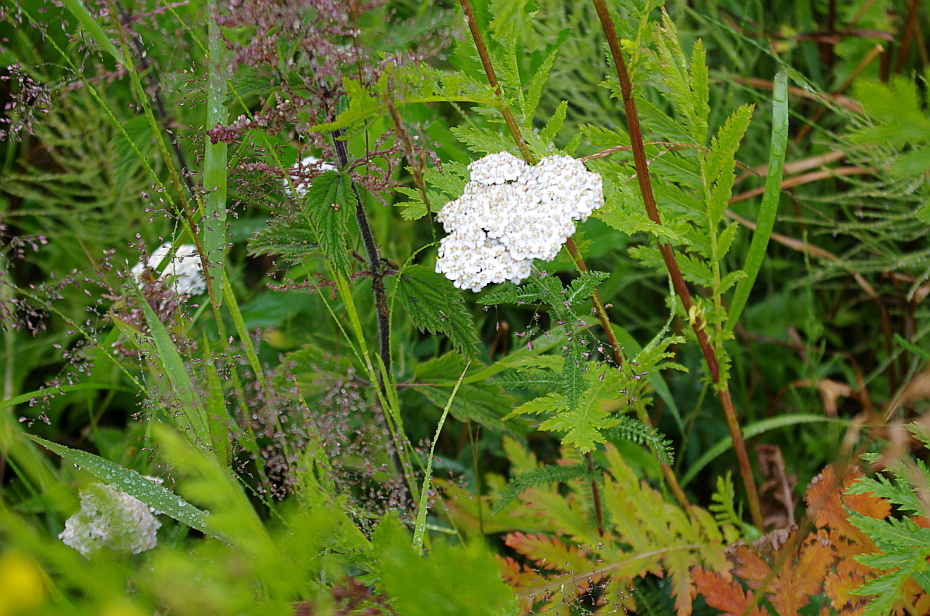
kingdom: Plantae
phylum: Tracheophyta
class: Magnoliopsida
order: Asterales
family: Asteraceae
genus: Achillea
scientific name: Achillea millefolium
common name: Yarrow
